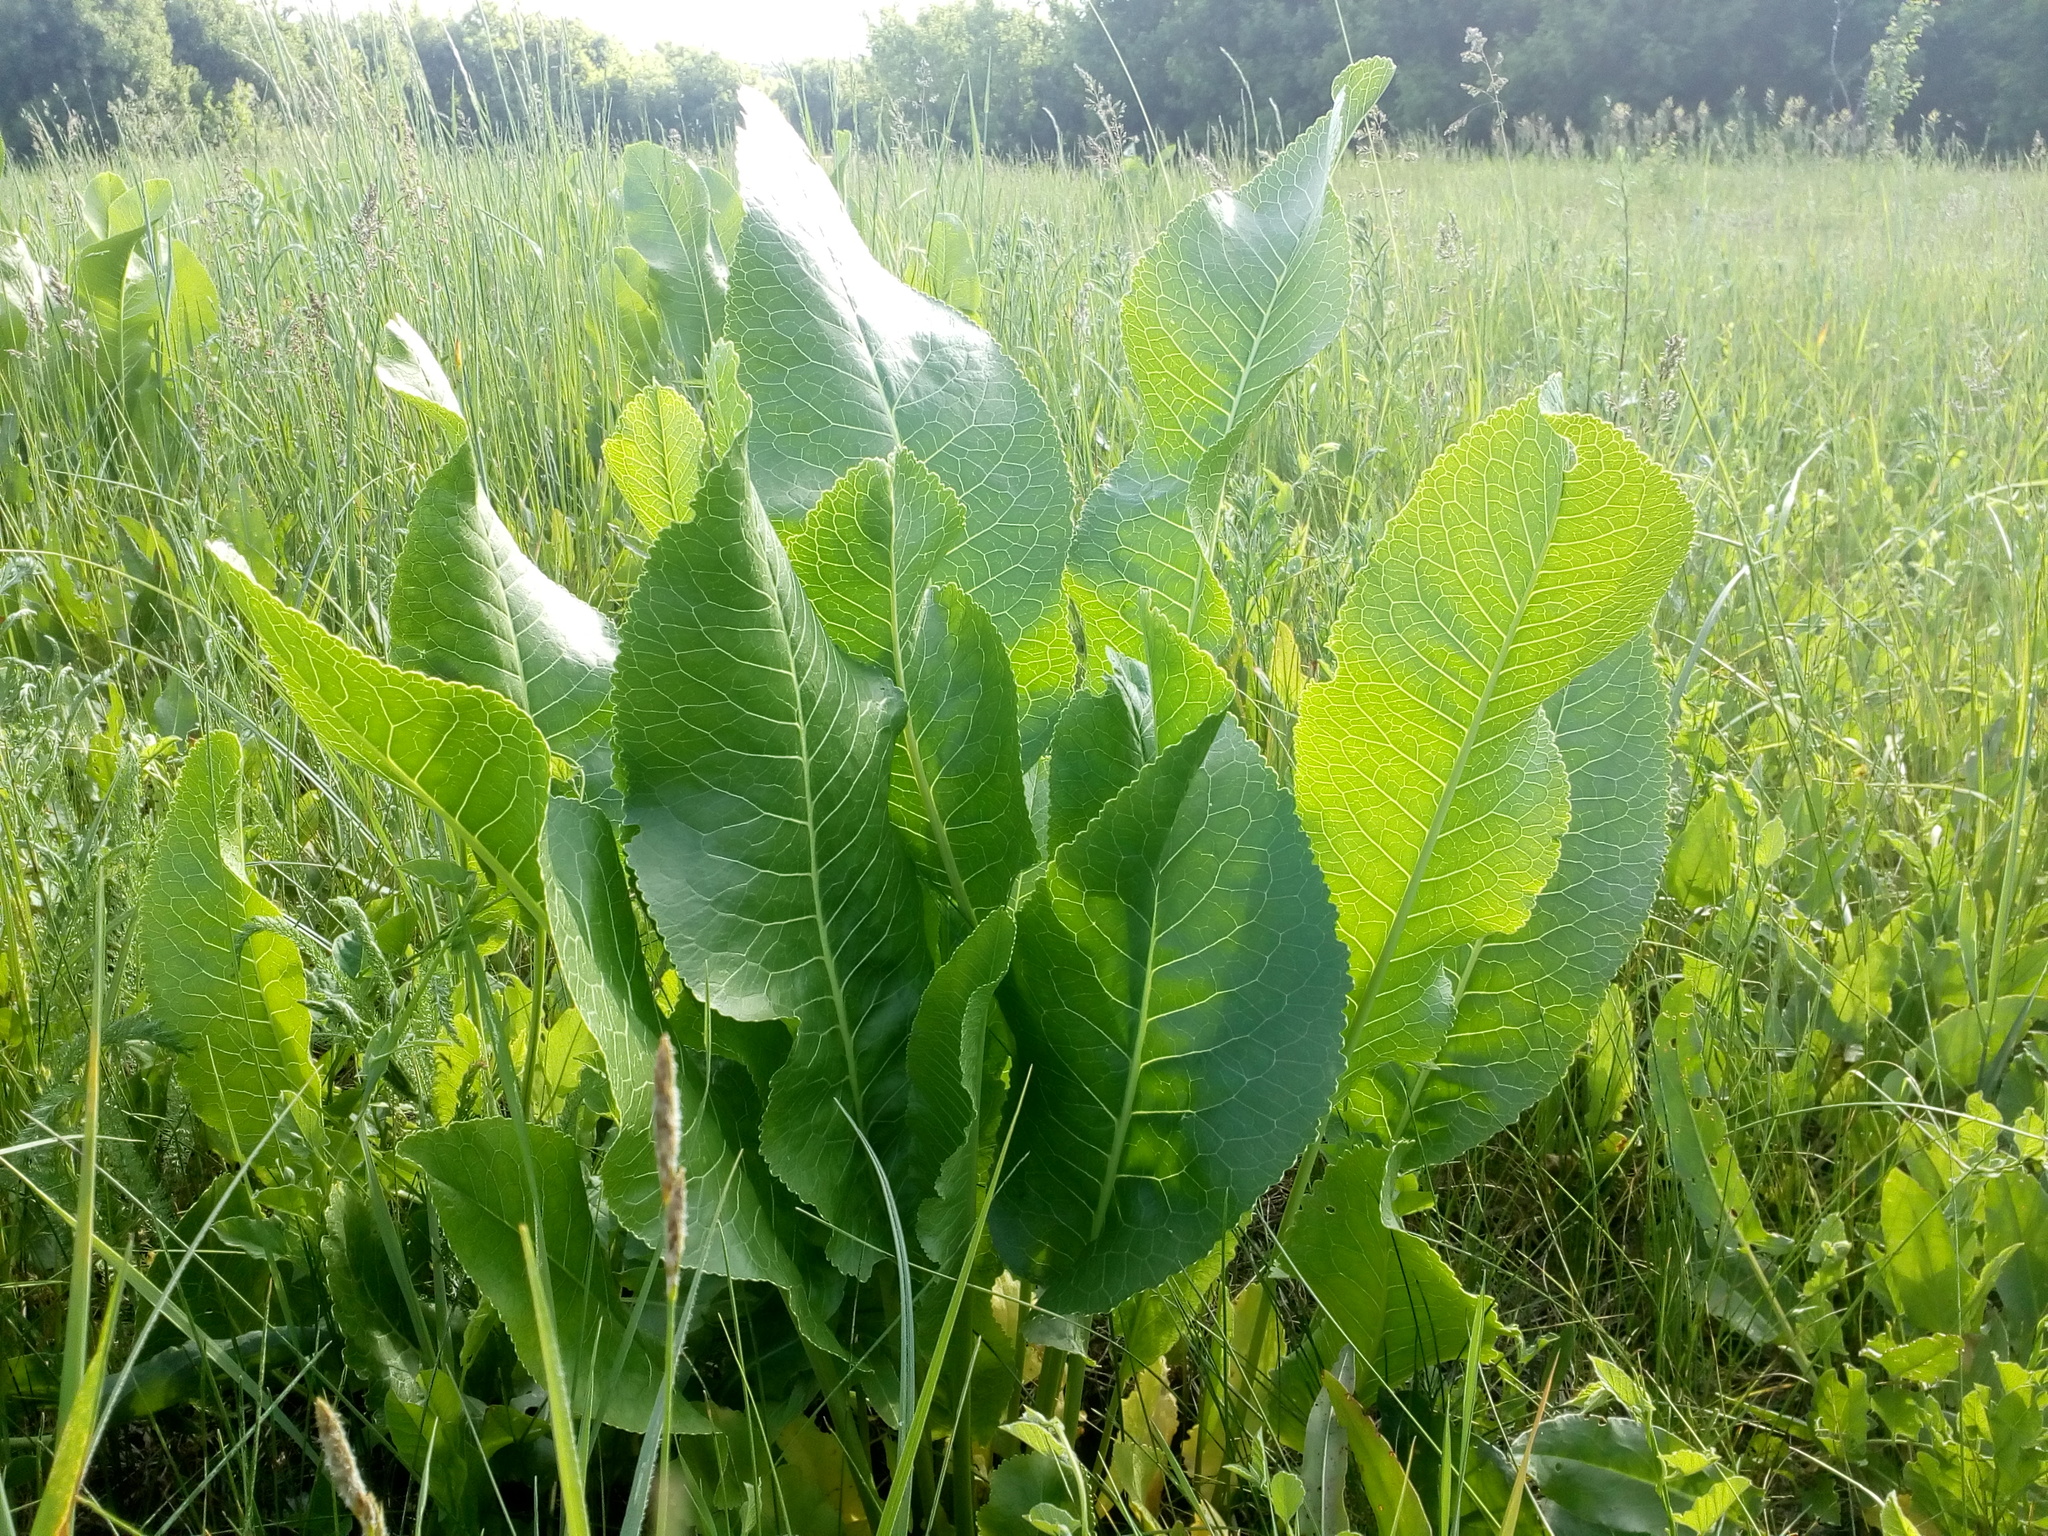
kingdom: Plantae
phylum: Tracheophyta
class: Magnoliopsida
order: Brassicales
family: Brassicaceae
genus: Armoracia
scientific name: Armoracia rusticana
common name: Horseradish
